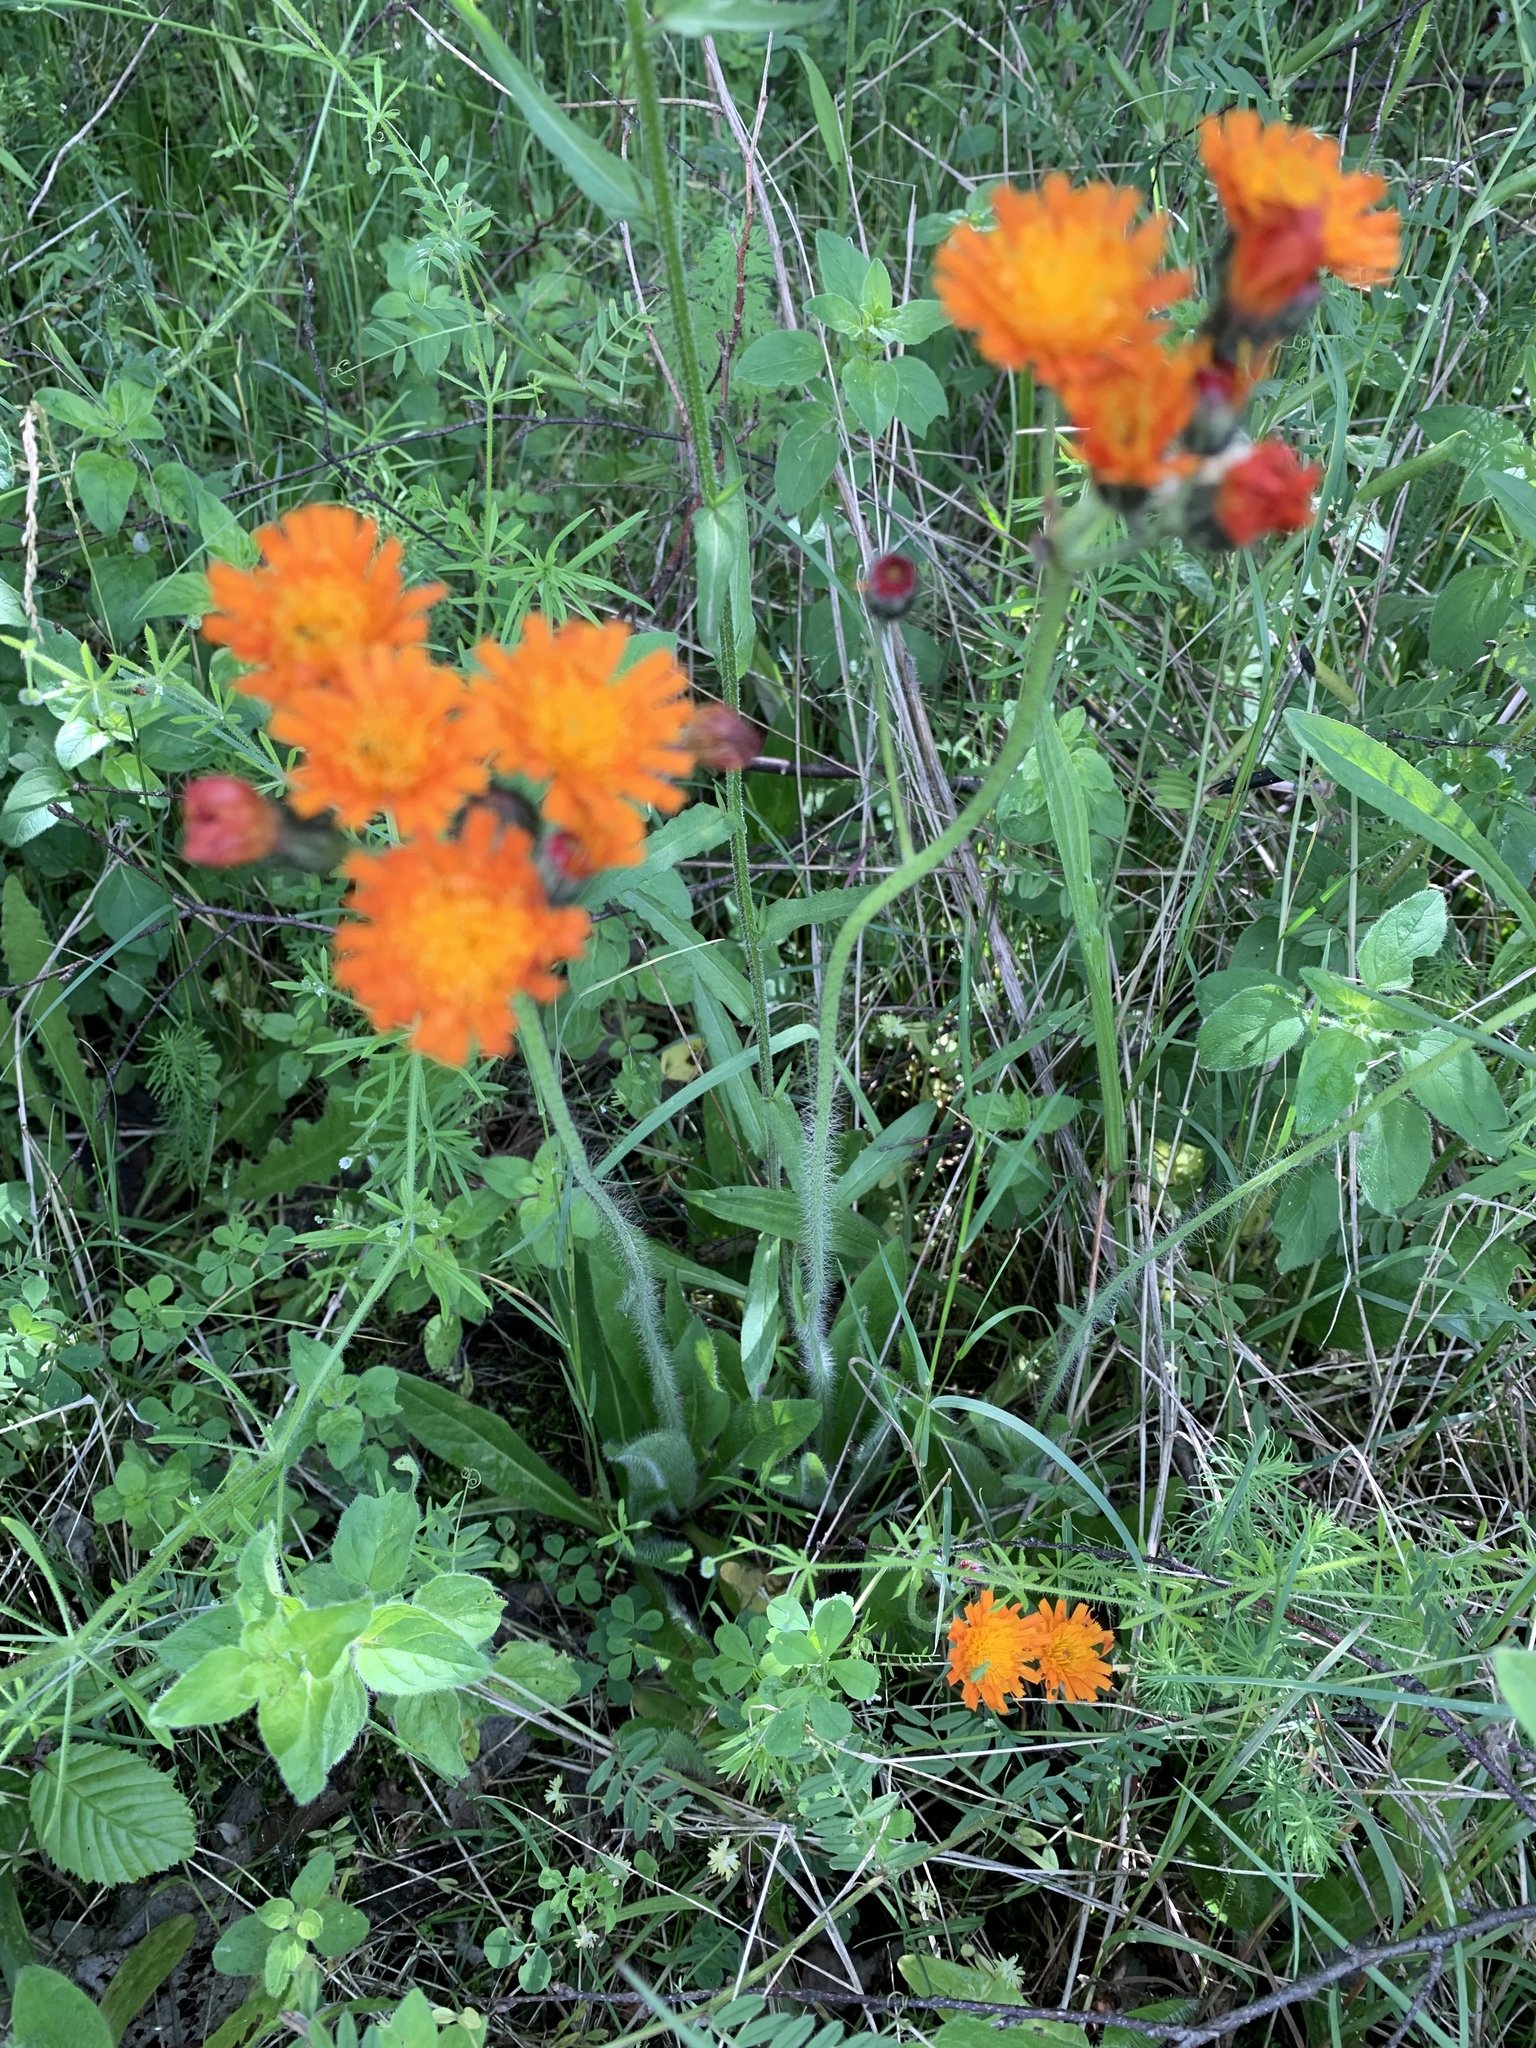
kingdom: Plantae
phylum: Tracheophyta
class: Magnoliopsida
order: Asterales
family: Asteraceae
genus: Pilosella
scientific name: Pilosella aurantiaca
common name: Fox-and-cubs
